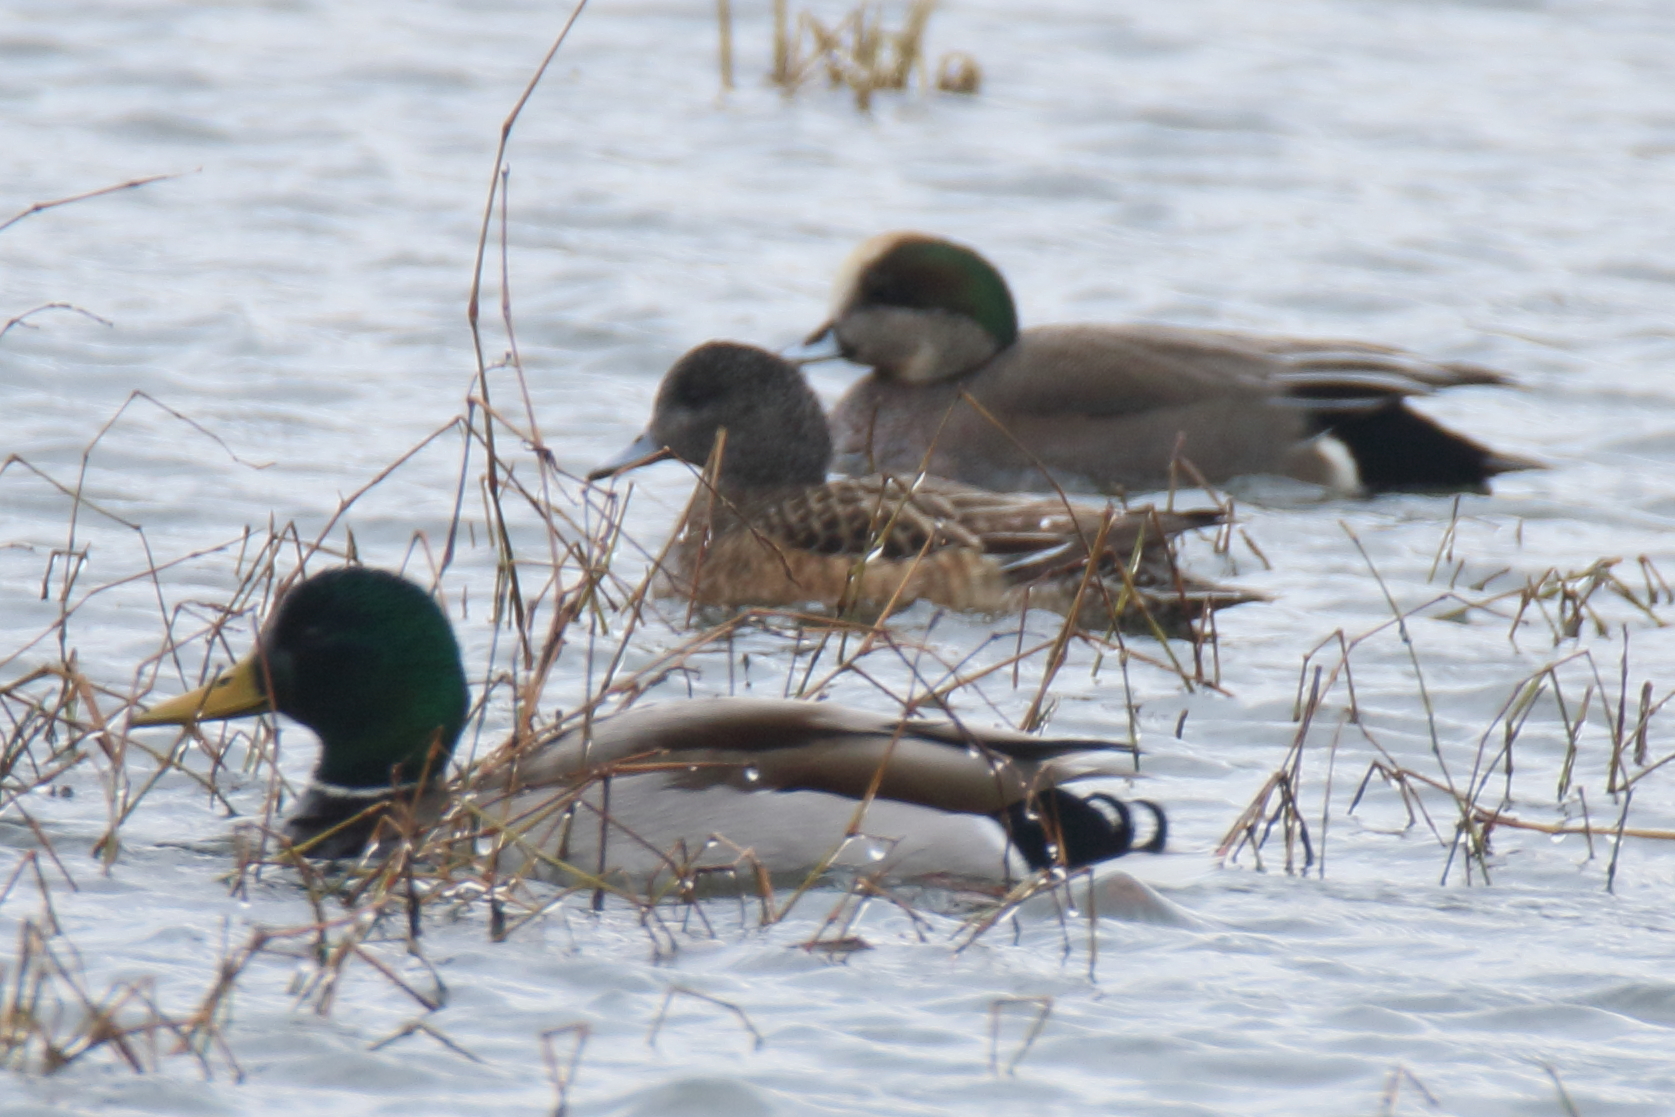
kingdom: Animalia
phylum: Chordata
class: Aves
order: Anseriformes
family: Anatidae
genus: Anas
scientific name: Anas platyrhynchos
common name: Mallard
